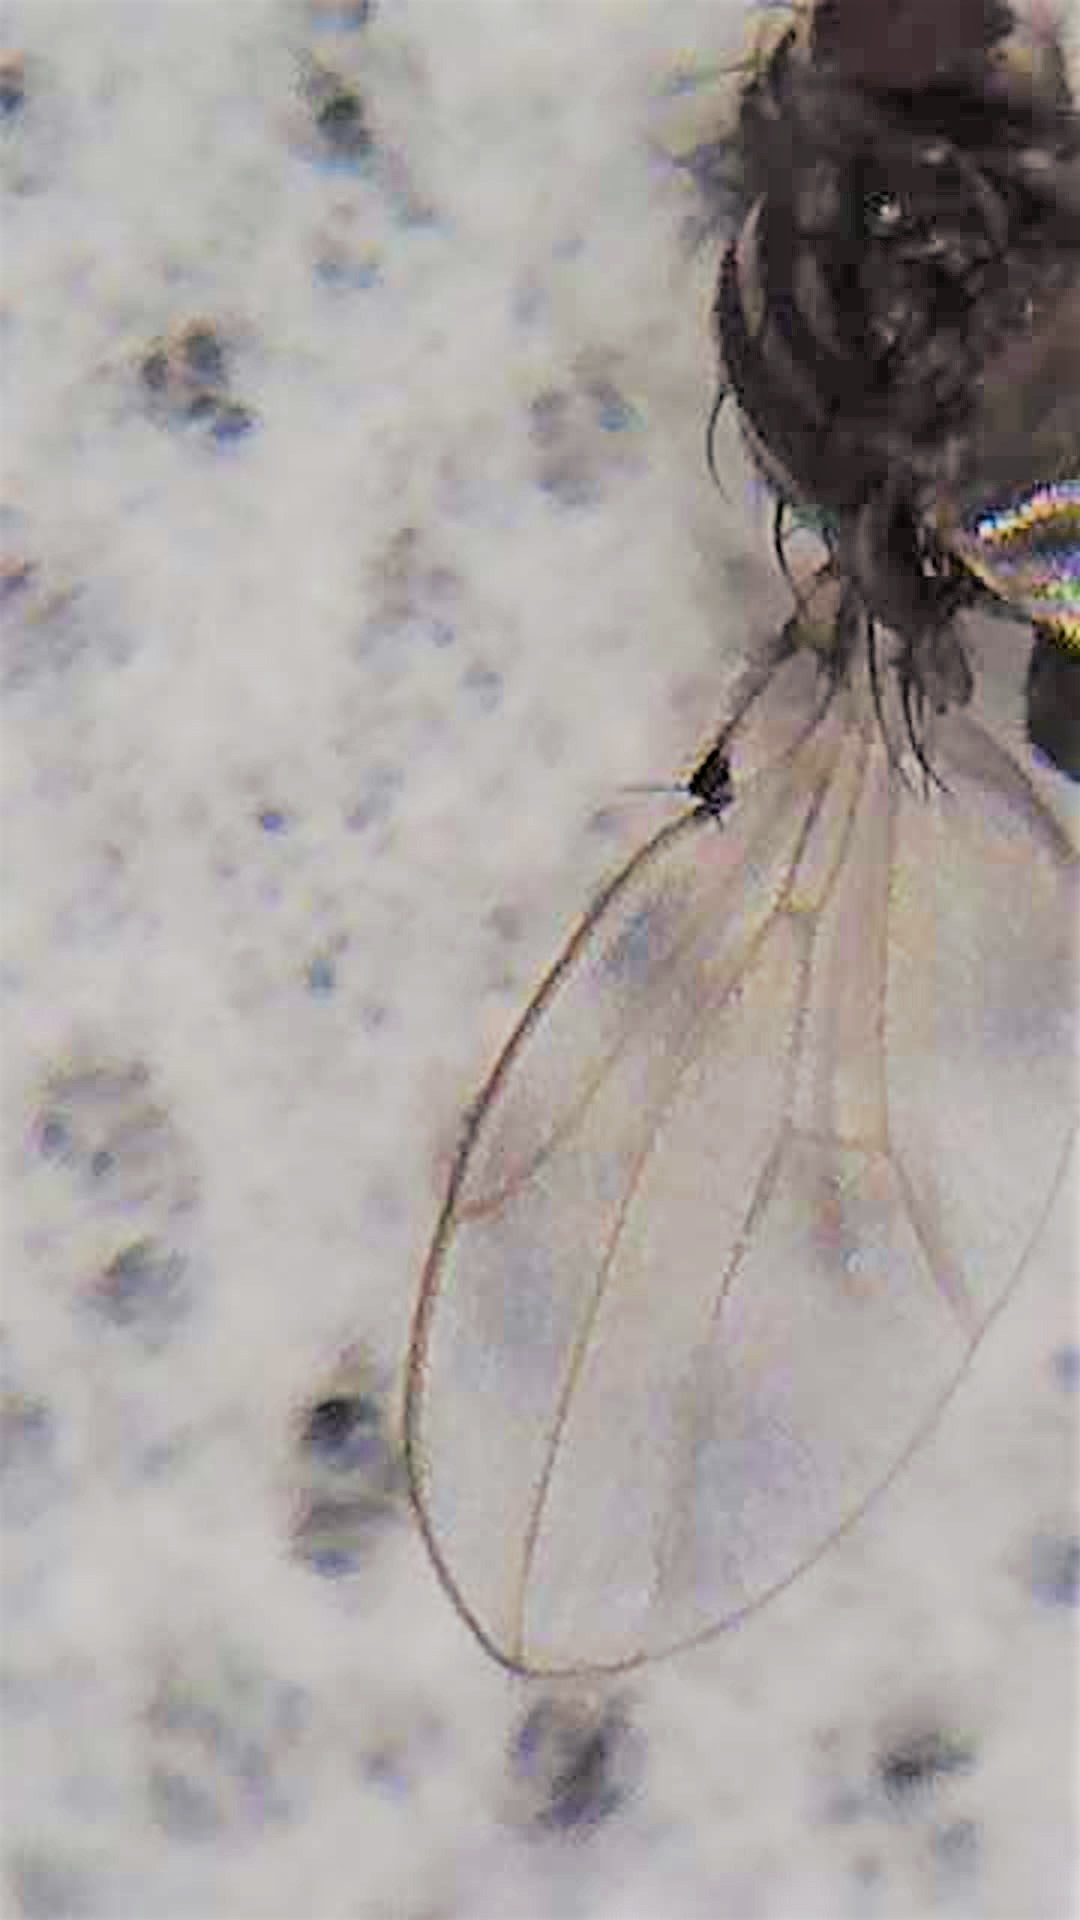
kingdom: Animalia
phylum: Arthropoda
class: Insecta
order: Diptera
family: Drosophilidae
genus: Dettopsomyia
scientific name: Dettopsomyia nigrovittata
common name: Pomace fly
